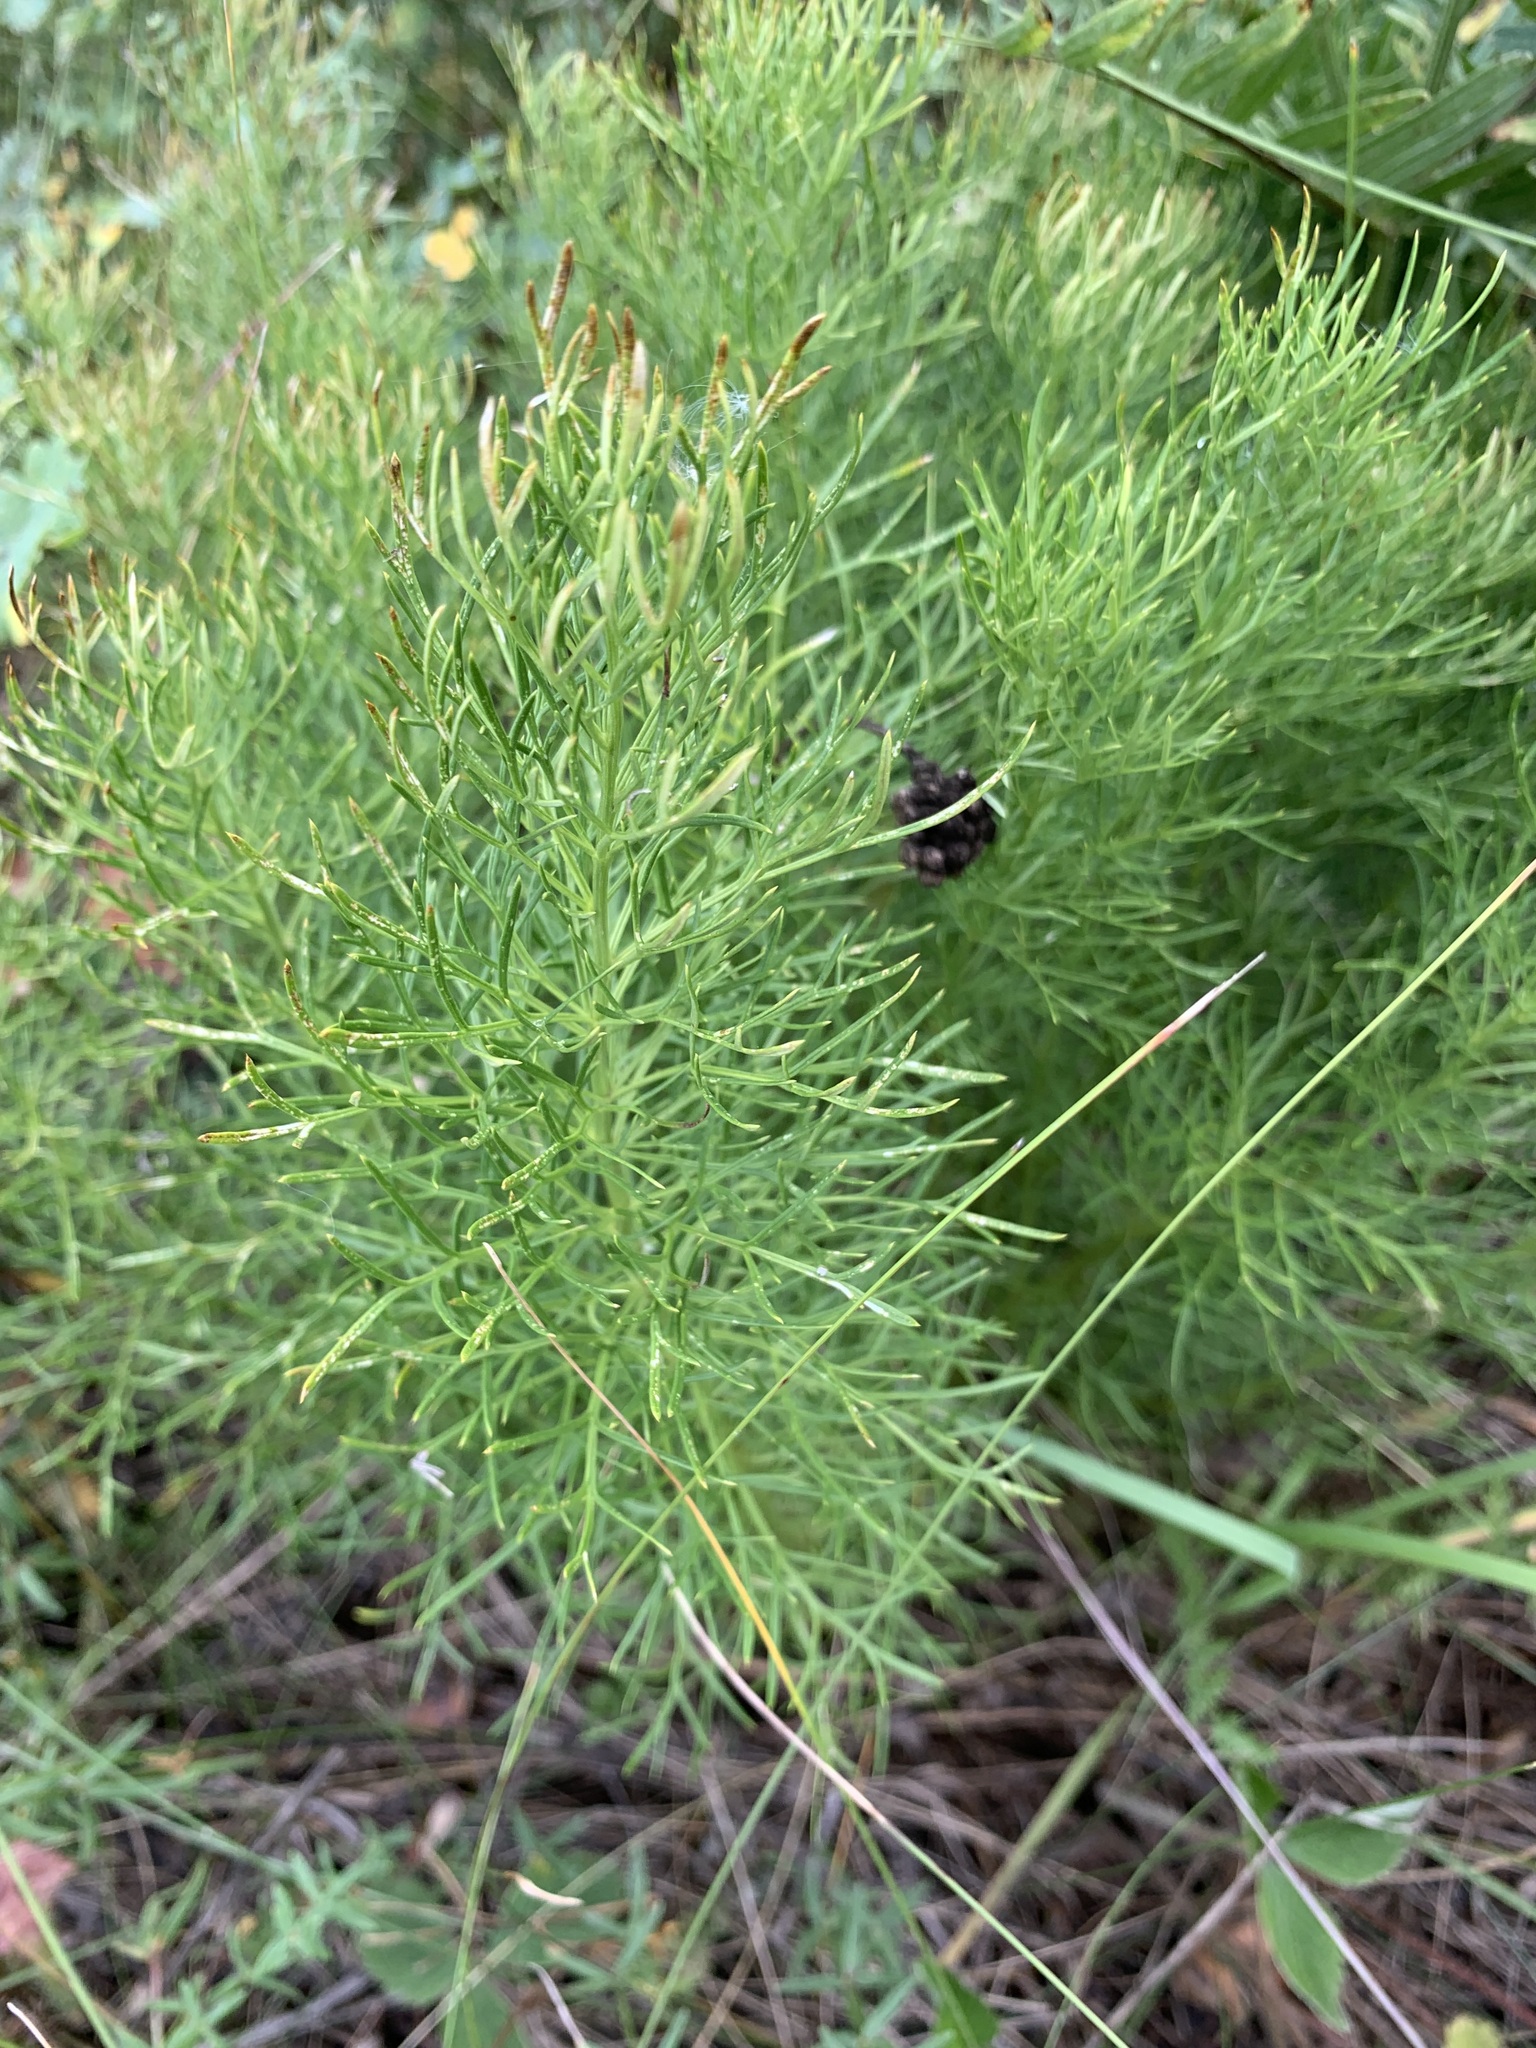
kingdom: Plantae
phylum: Tracheophyta
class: Magnoliopsida
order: Ranunculales
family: Ranunculaceae
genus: Adonis
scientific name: Adonis vernalis
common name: Yellow pheasants-eye
